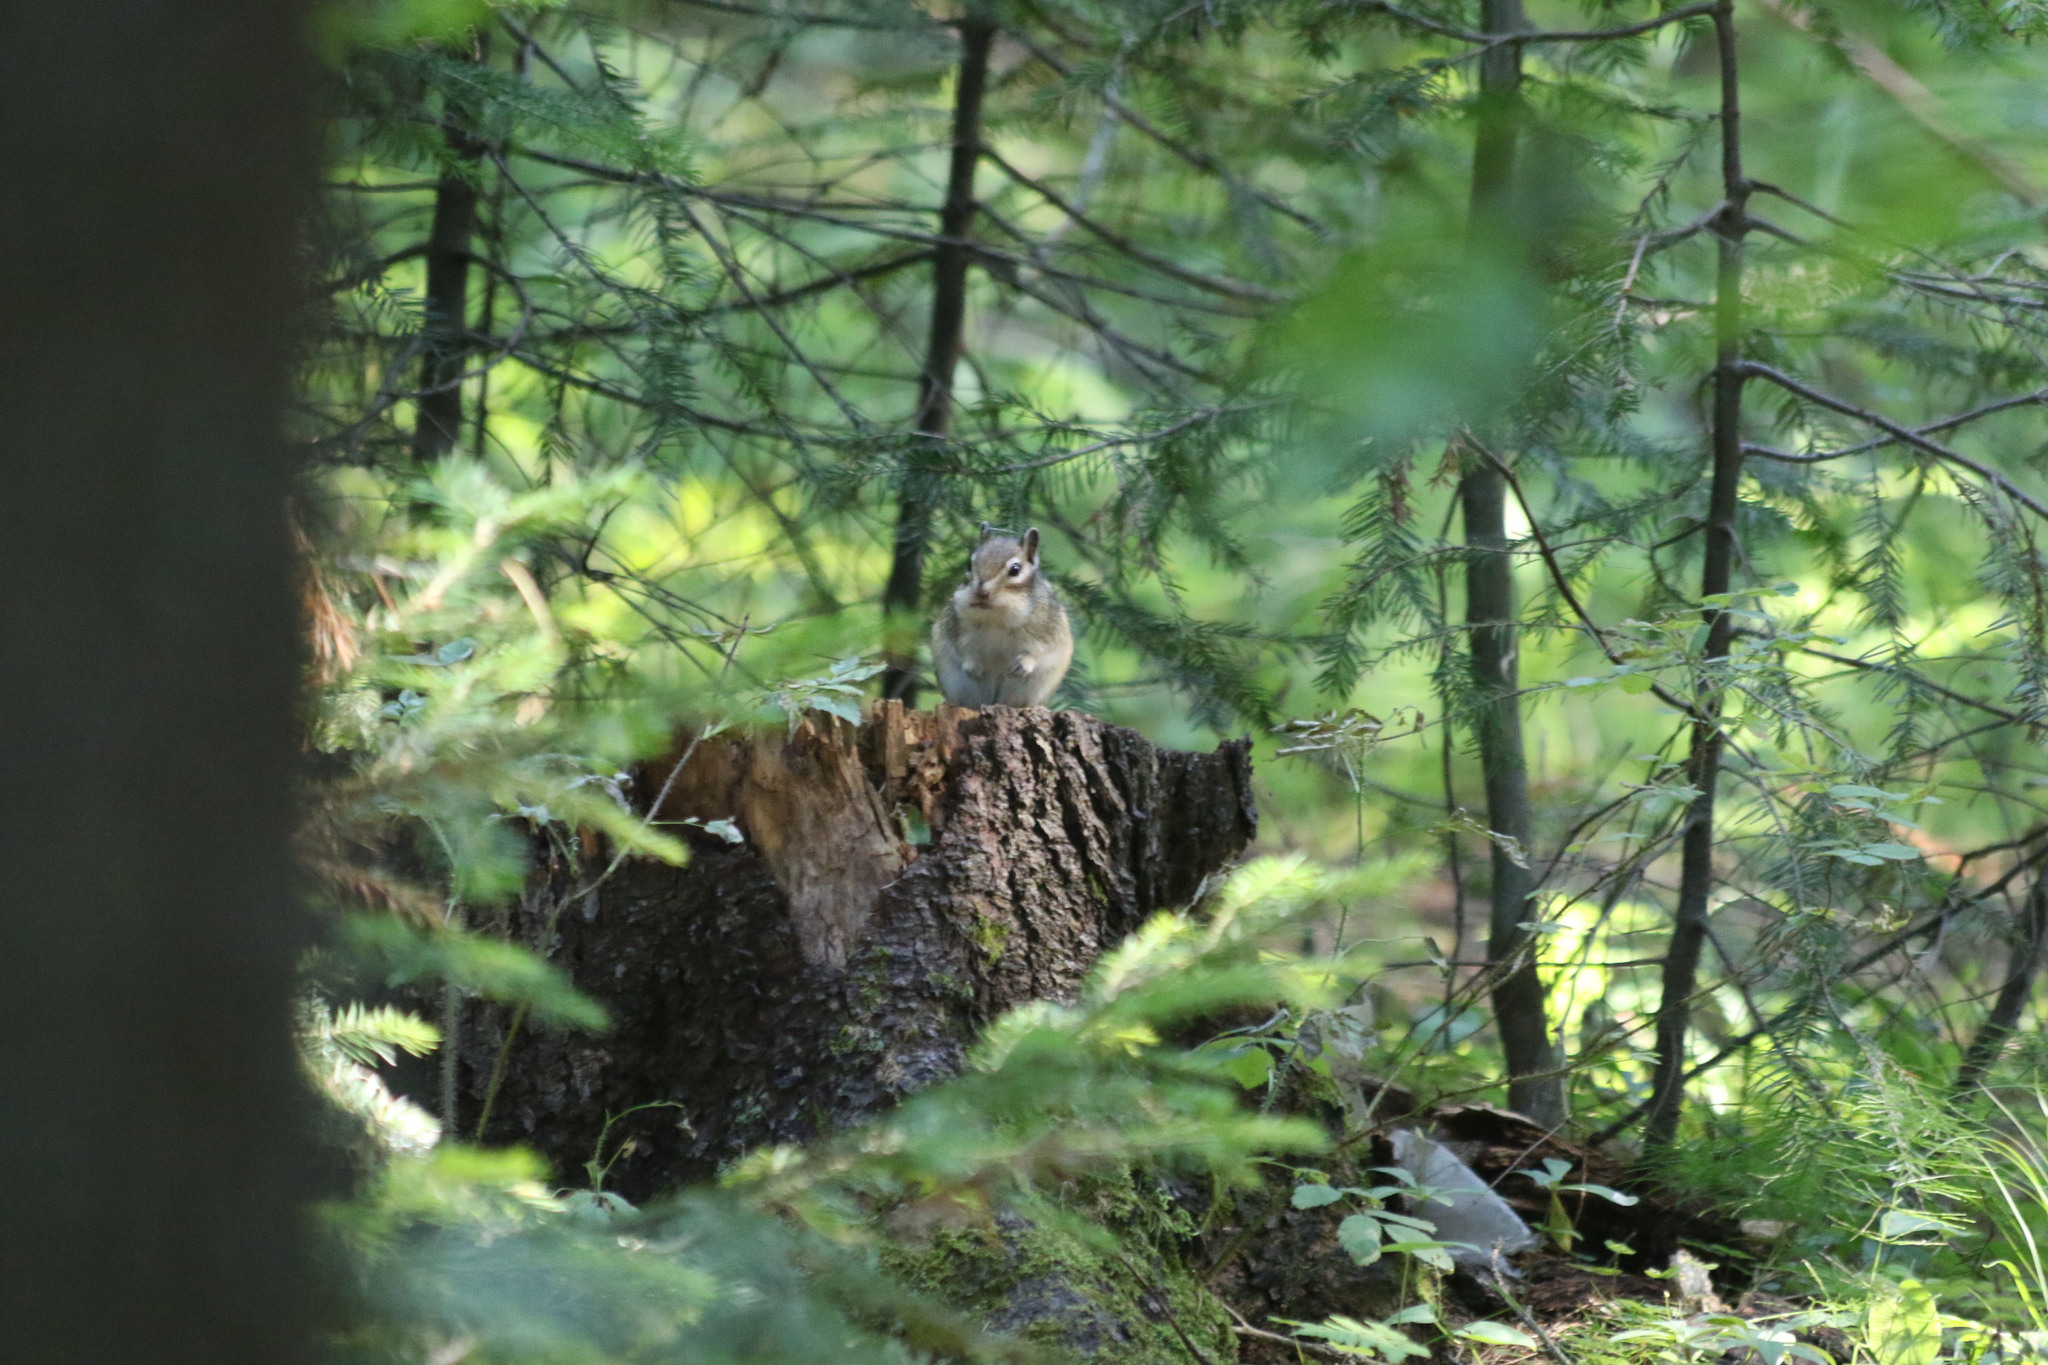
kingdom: Animalia
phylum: Chordata
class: Mammalia
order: Rodentia
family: Sciuridae
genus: Tamias
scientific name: Tamias sibiricus
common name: Siberian chipmunk
